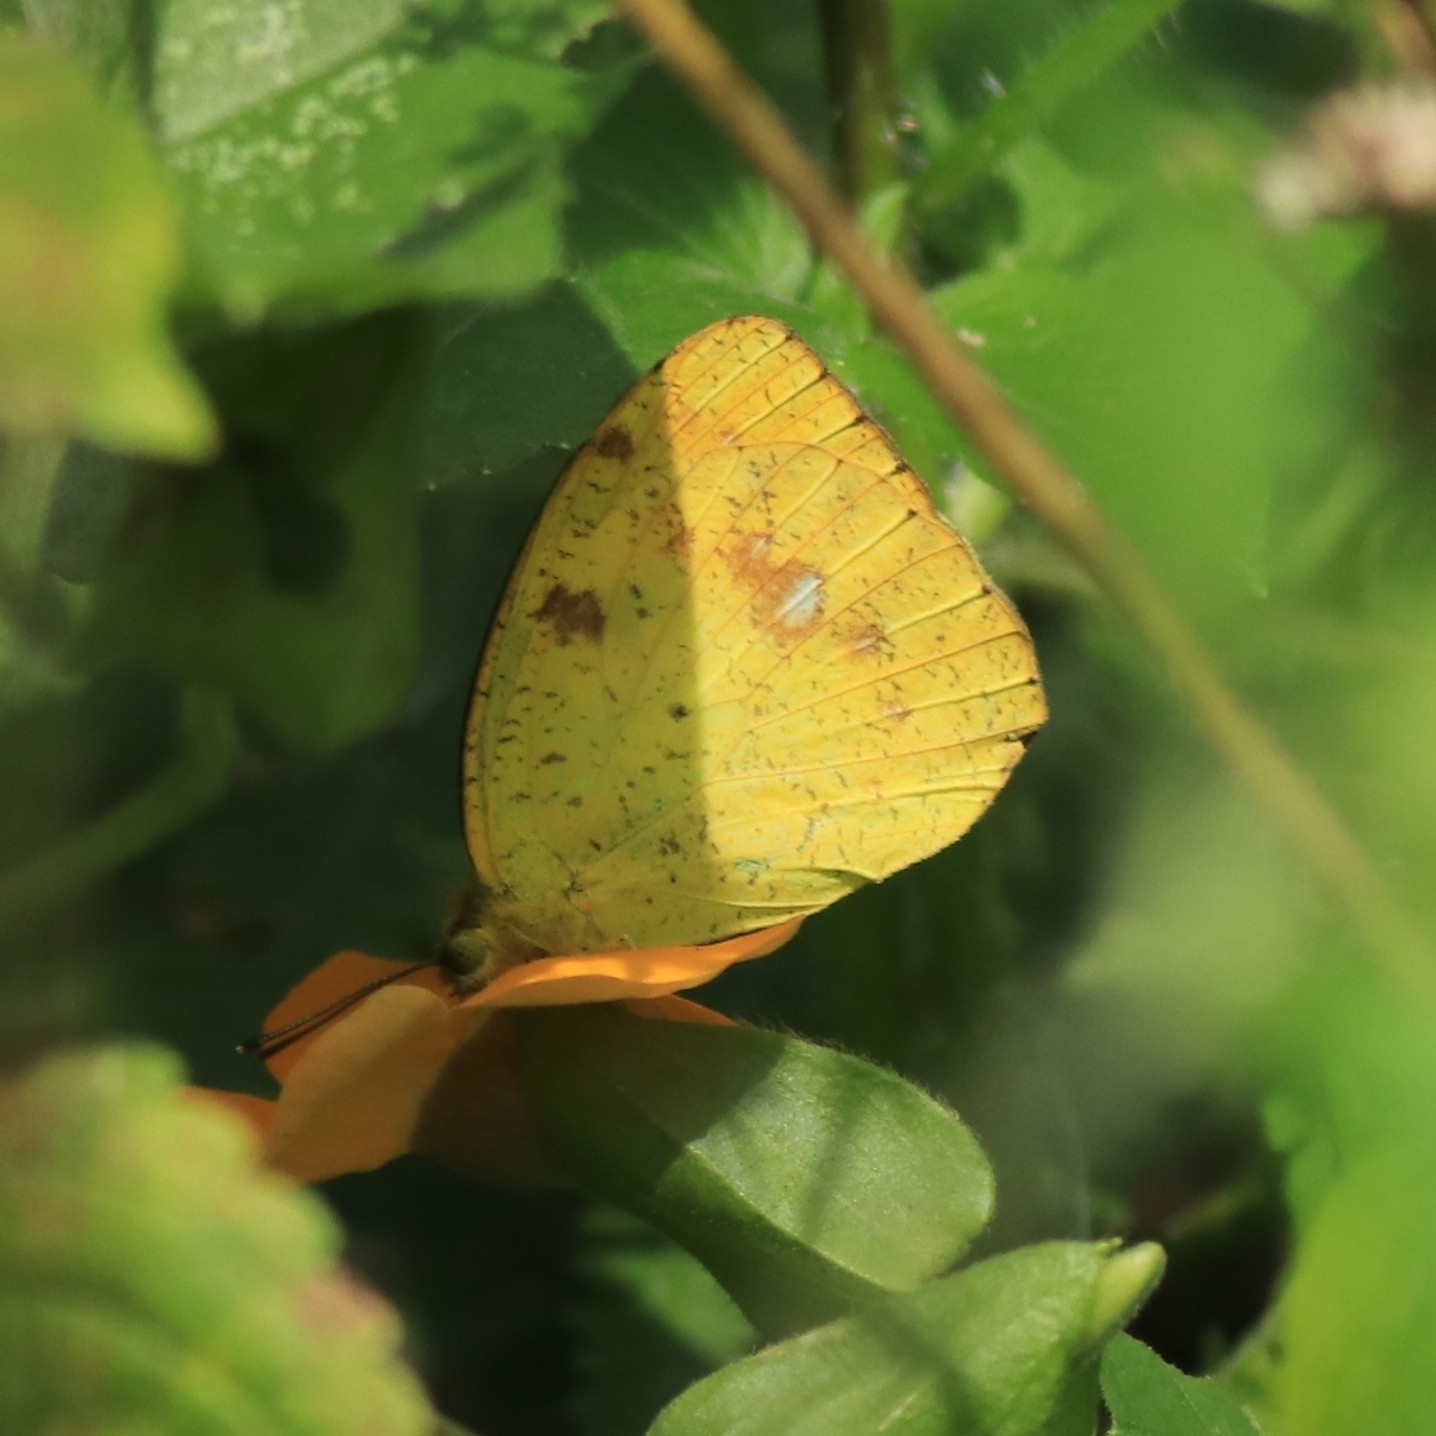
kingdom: Animalia
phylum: Arthropoda
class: Insecta
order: Lepidoptera
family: Pieridae
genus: Ixias
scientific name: Ixias pyrene
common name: Yellow orange tip
